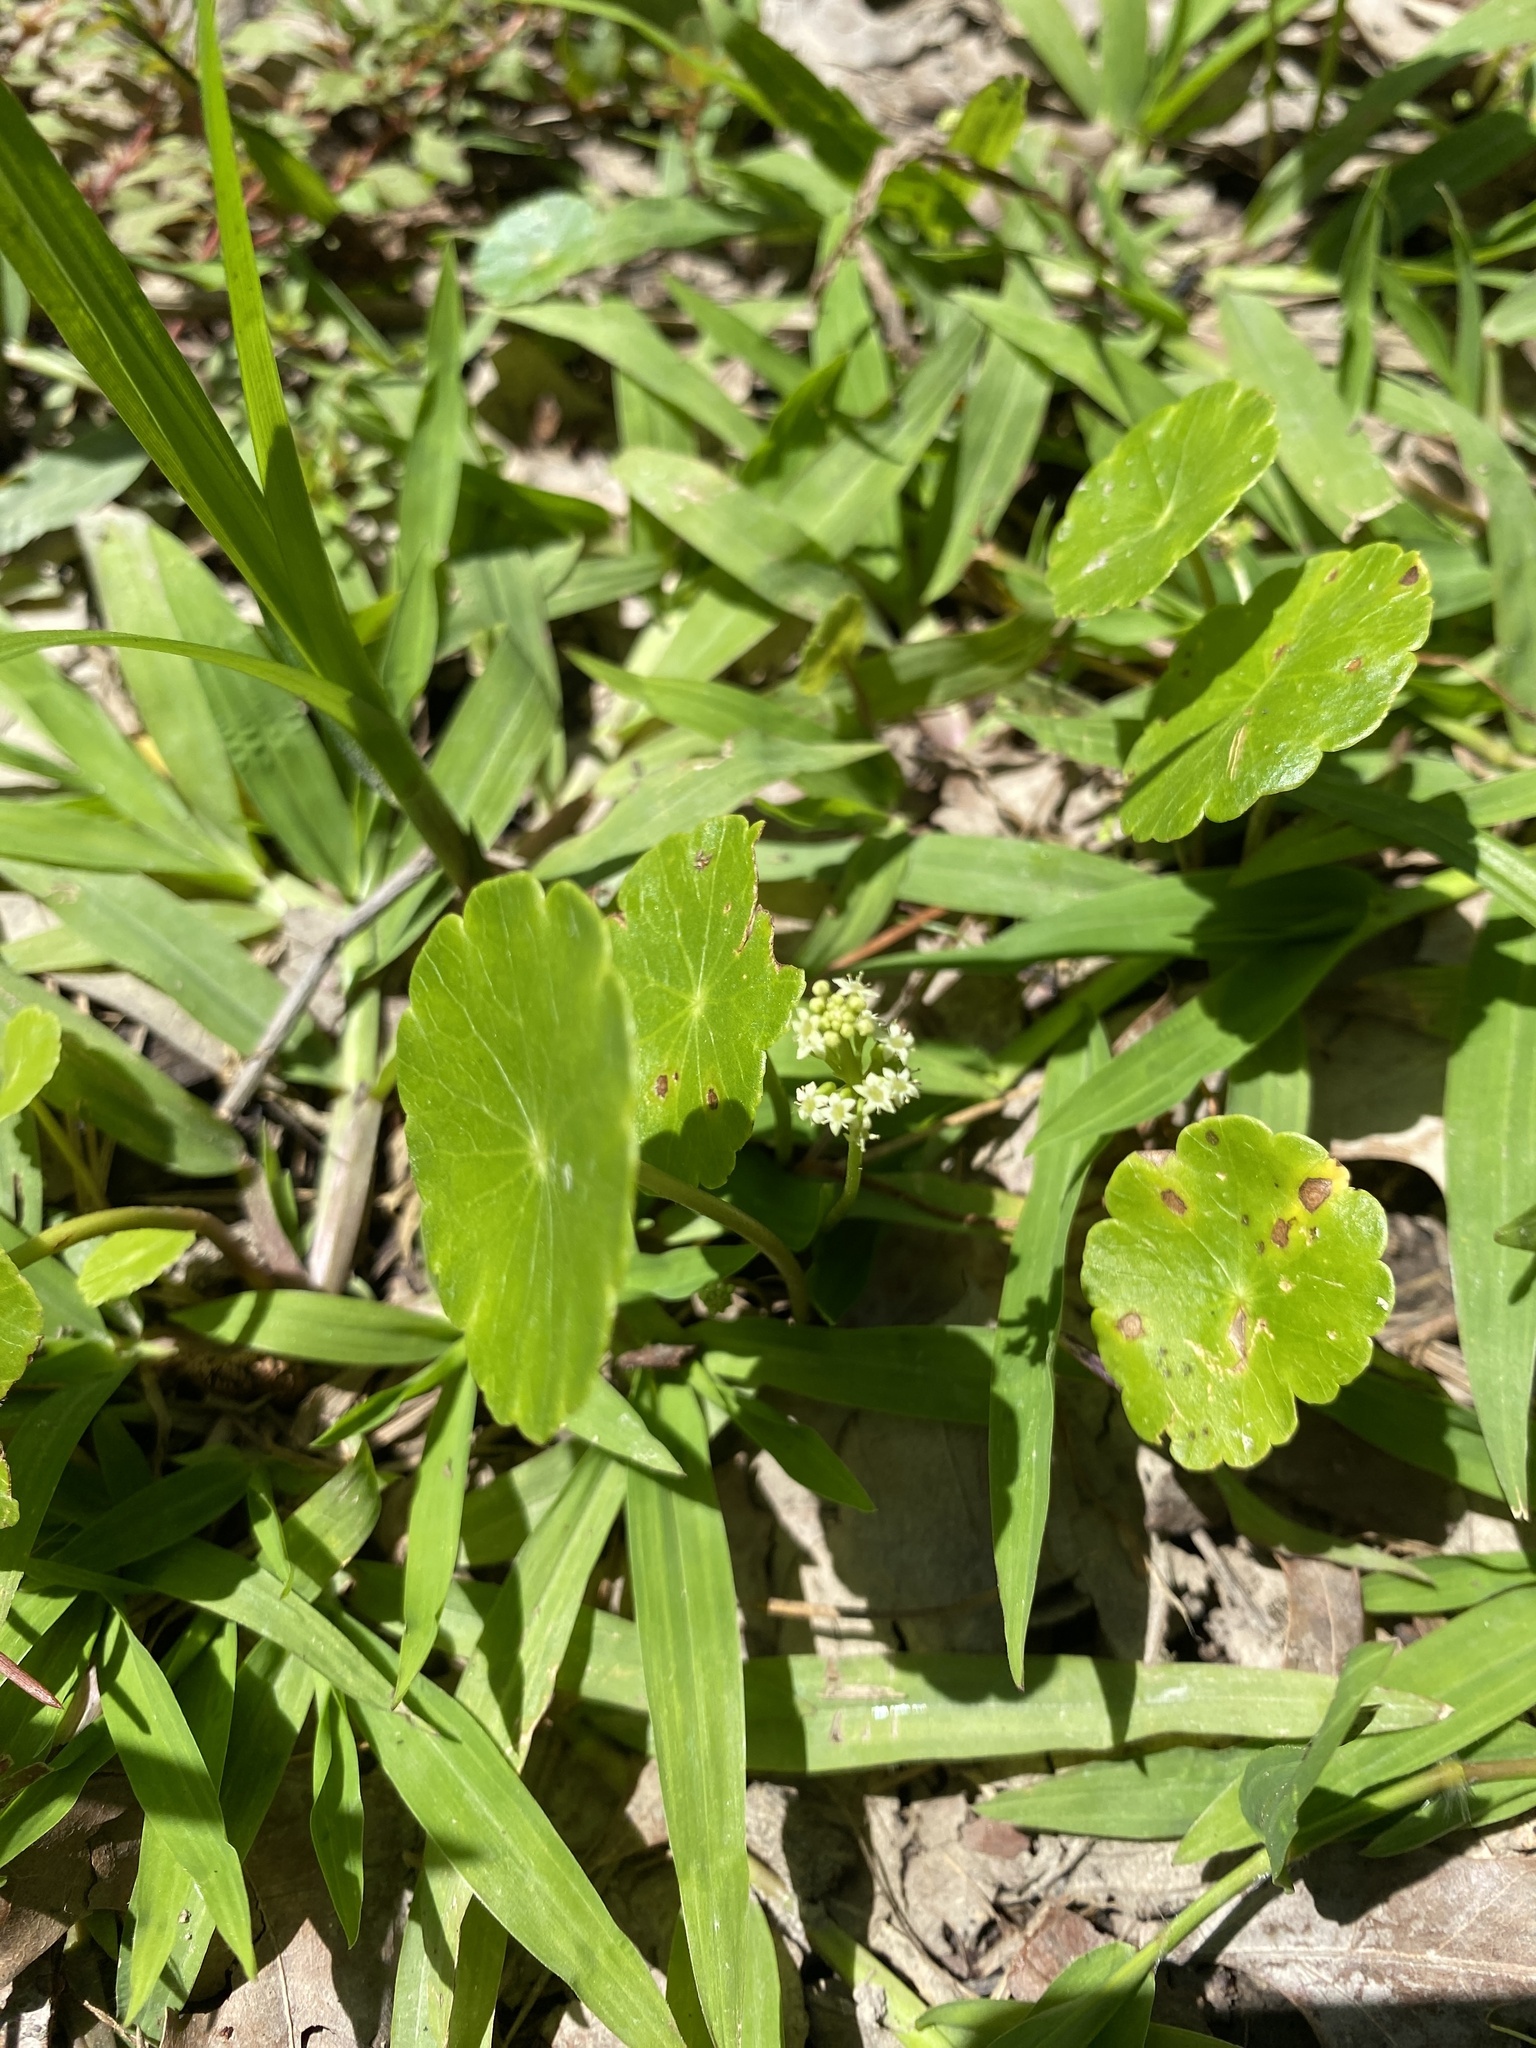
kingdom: Plantae
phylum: Tracheophyta
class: Magnoliopsida
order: Apiales
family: Araliaceae
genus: Hydrocotyle
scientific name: Hydrocotyle prolifera
